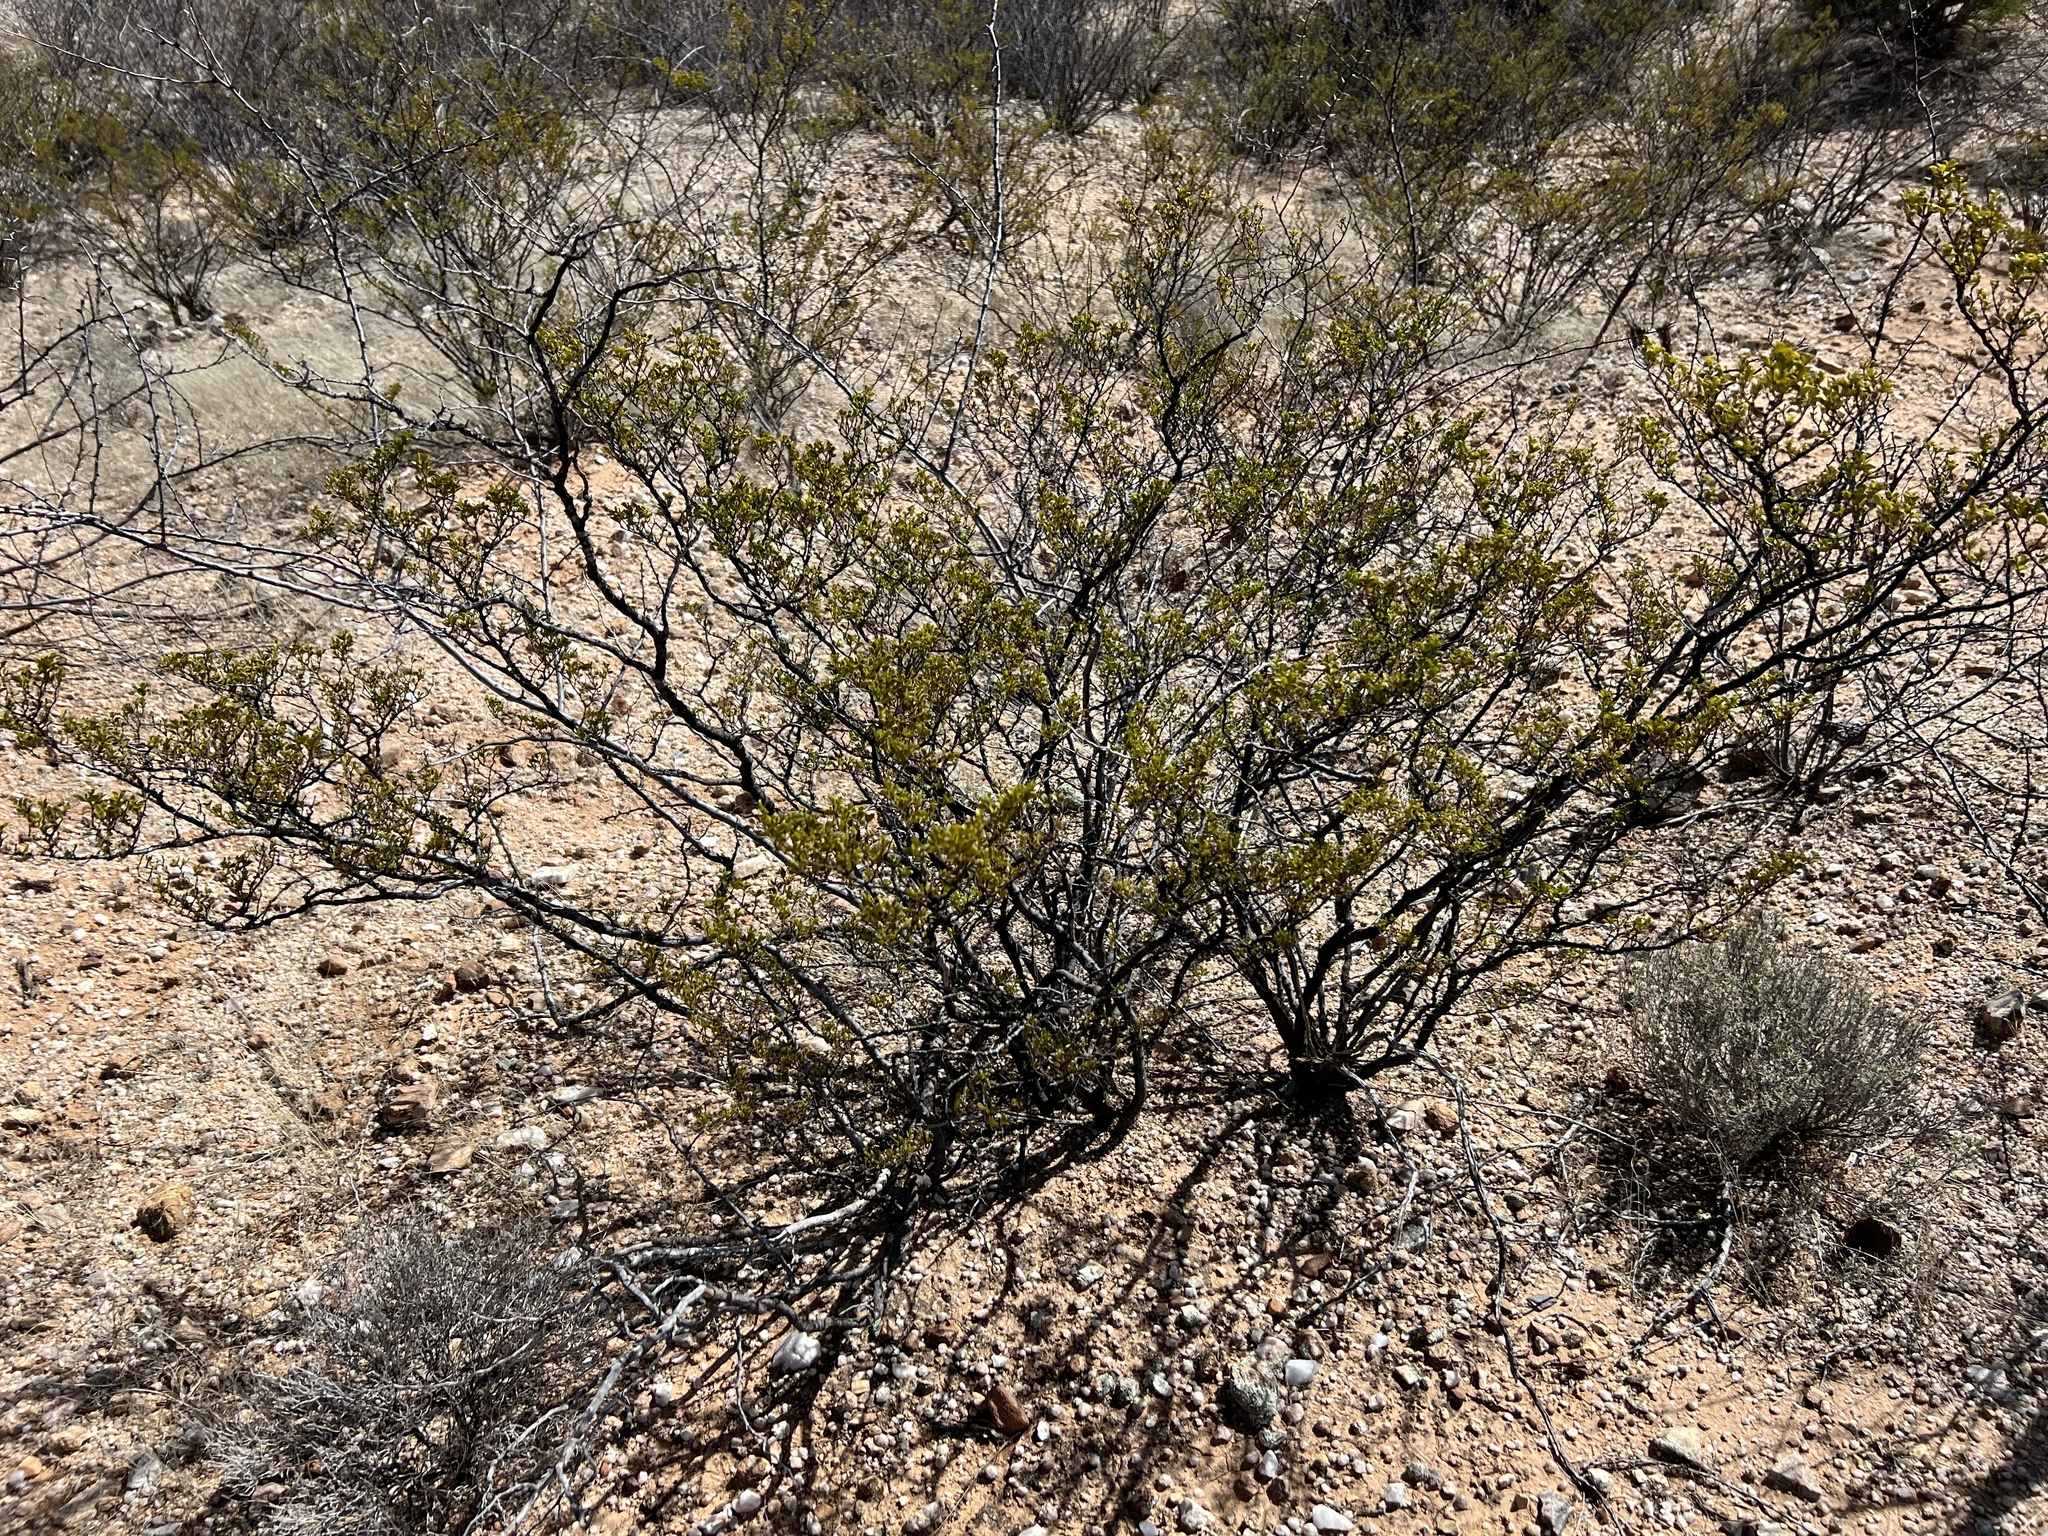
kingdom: Plantae
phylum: Tracheophyta
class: Magnoliopsida
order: Zygophyllales
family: Zygophyllaceae
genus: Larrea
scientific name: Larrea tridentata
